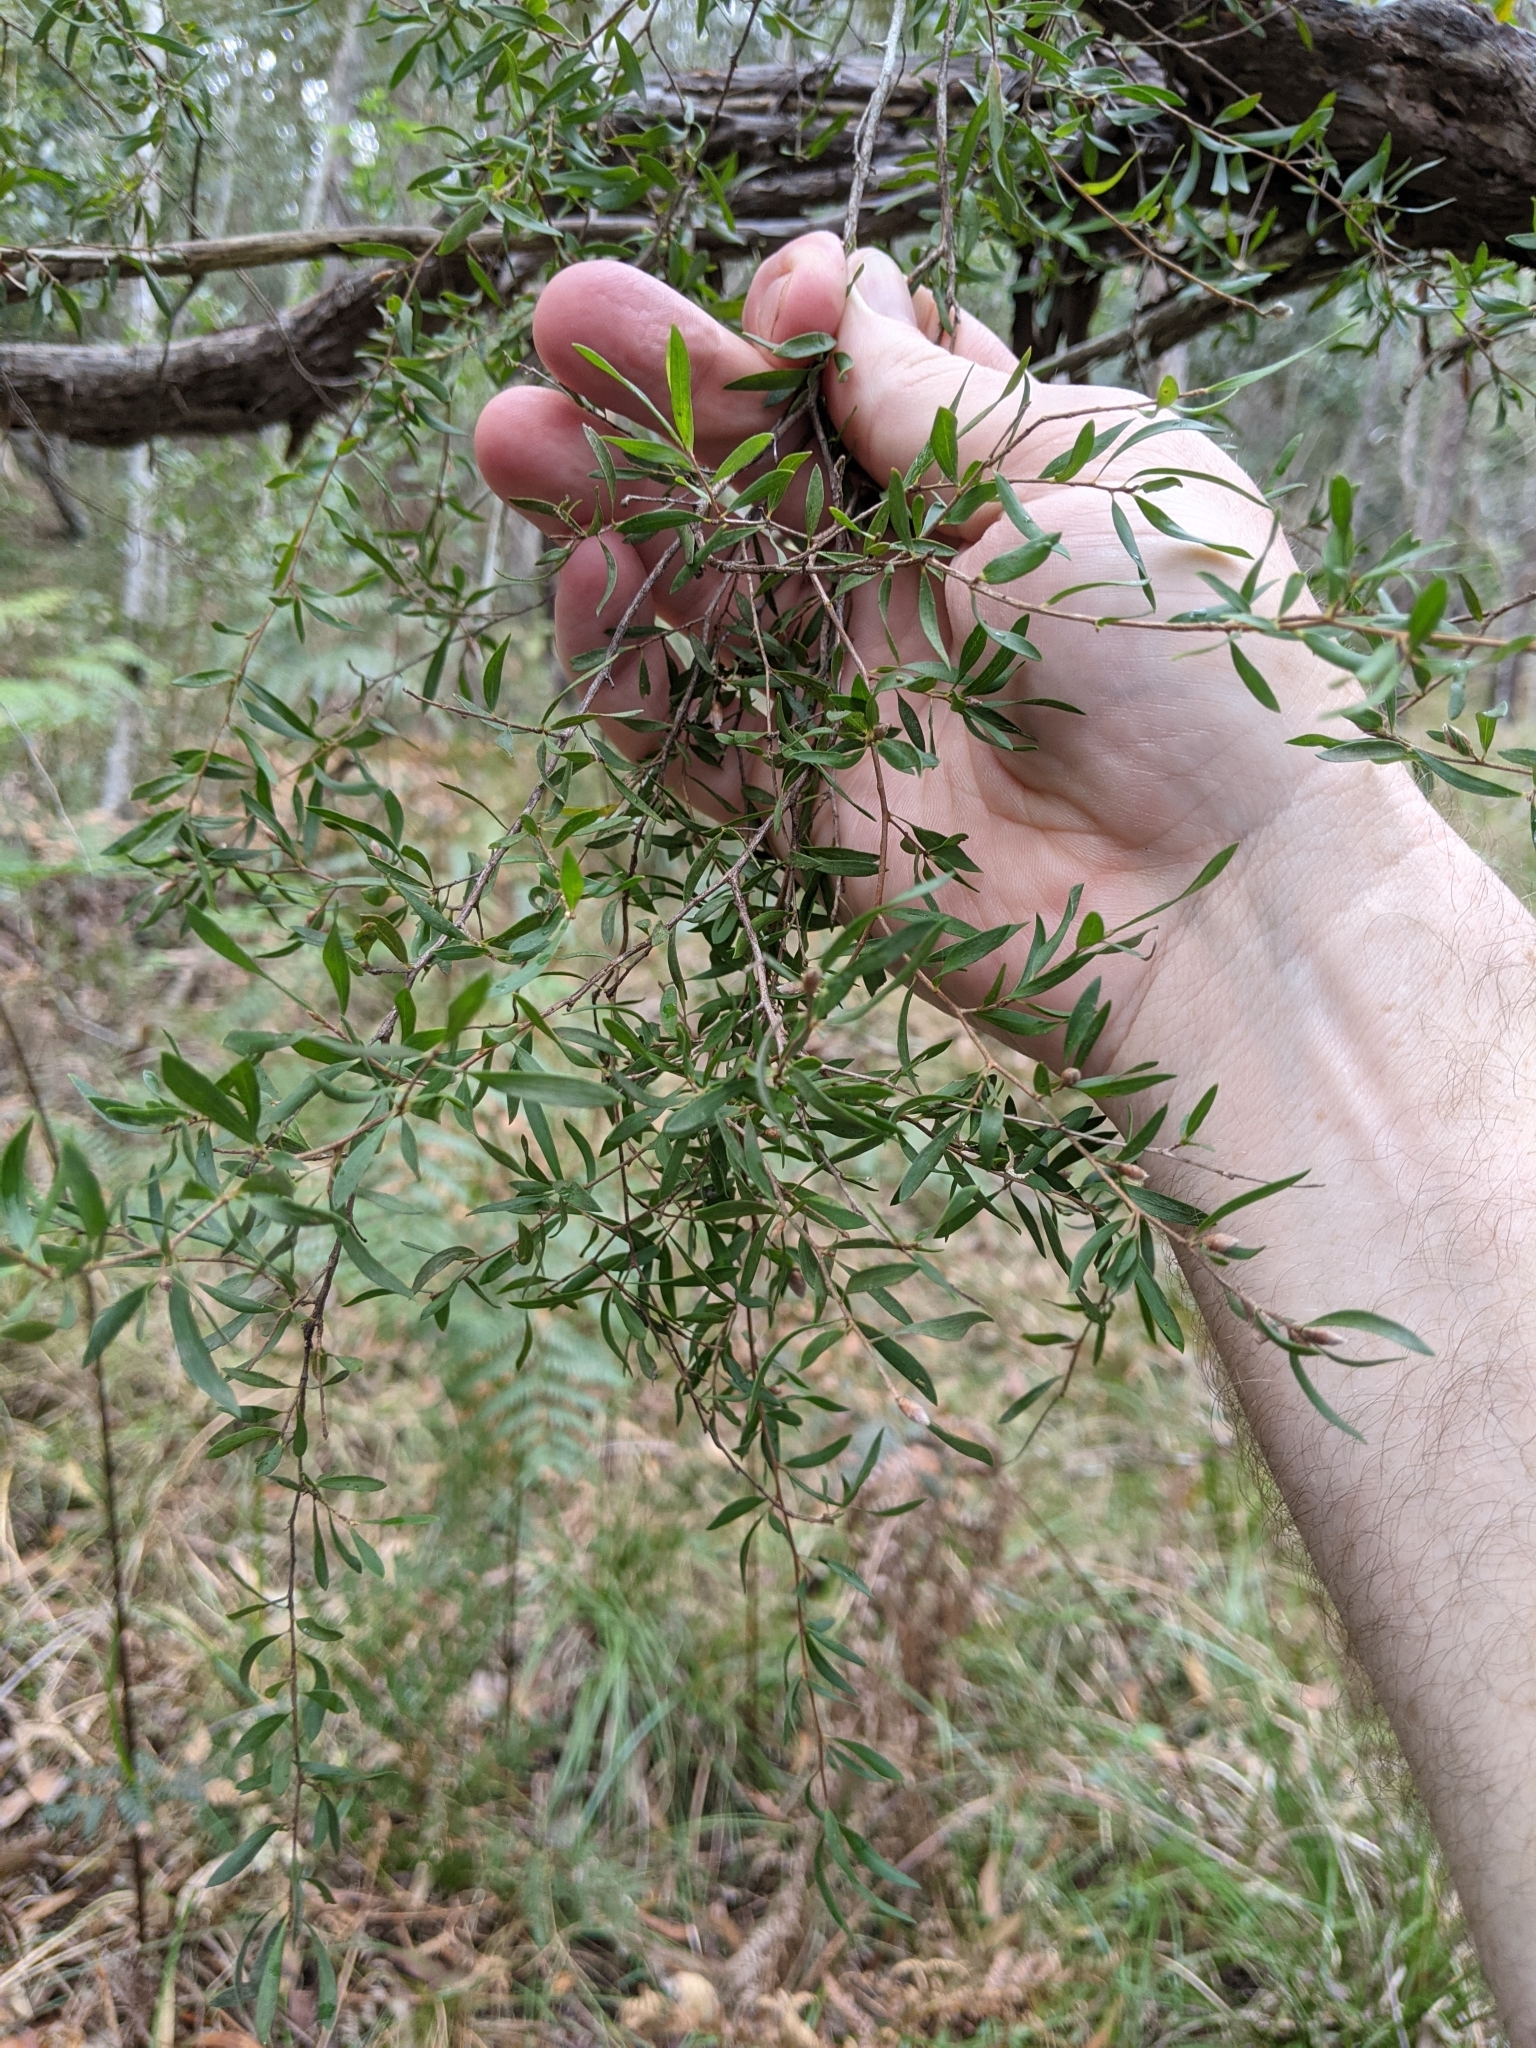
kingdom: Plantae
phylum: Tracheophyta
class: Magnoliopsida
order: Myrtales
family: Myrtaceae
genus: Leptospermum
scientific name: Leptospermum trinervium
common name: Flaky-barked tea-tree
